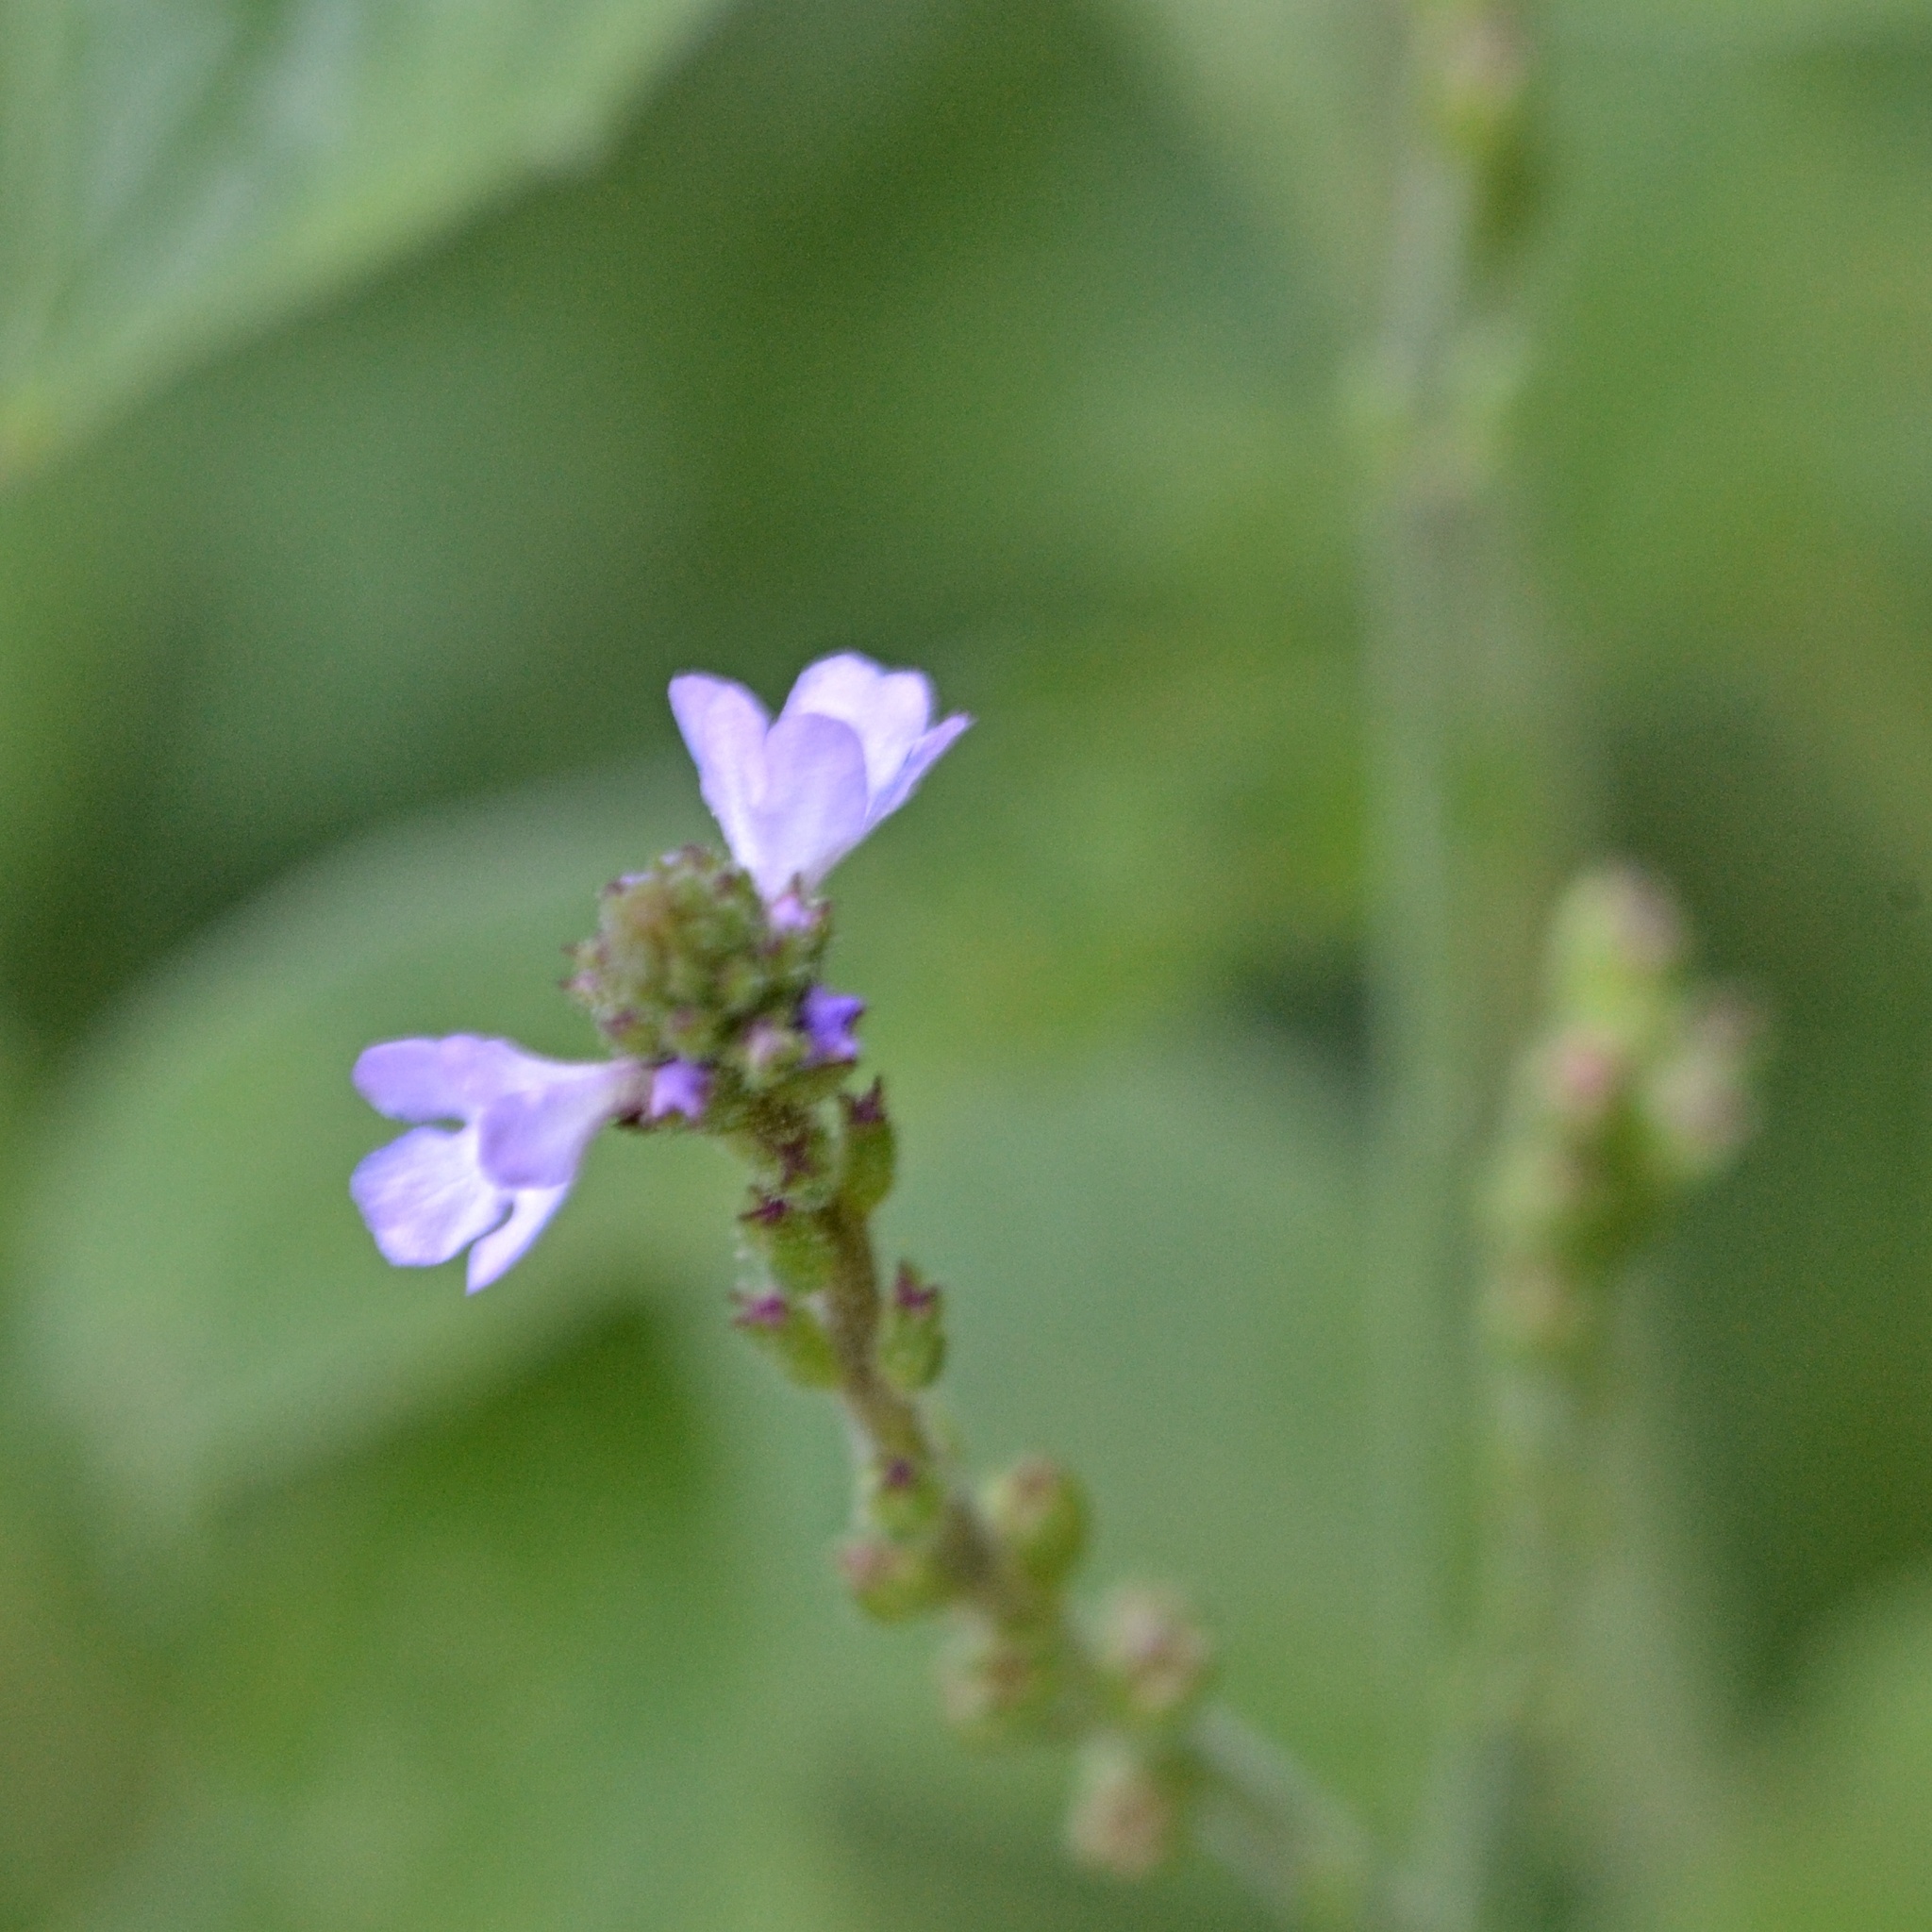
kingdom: Plantae
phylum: Tracheophyta
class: Magnoliopsida
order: Lamiales
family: Verbenaceae
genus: Verbena
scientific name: Verbena officinalis
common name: Vervain
